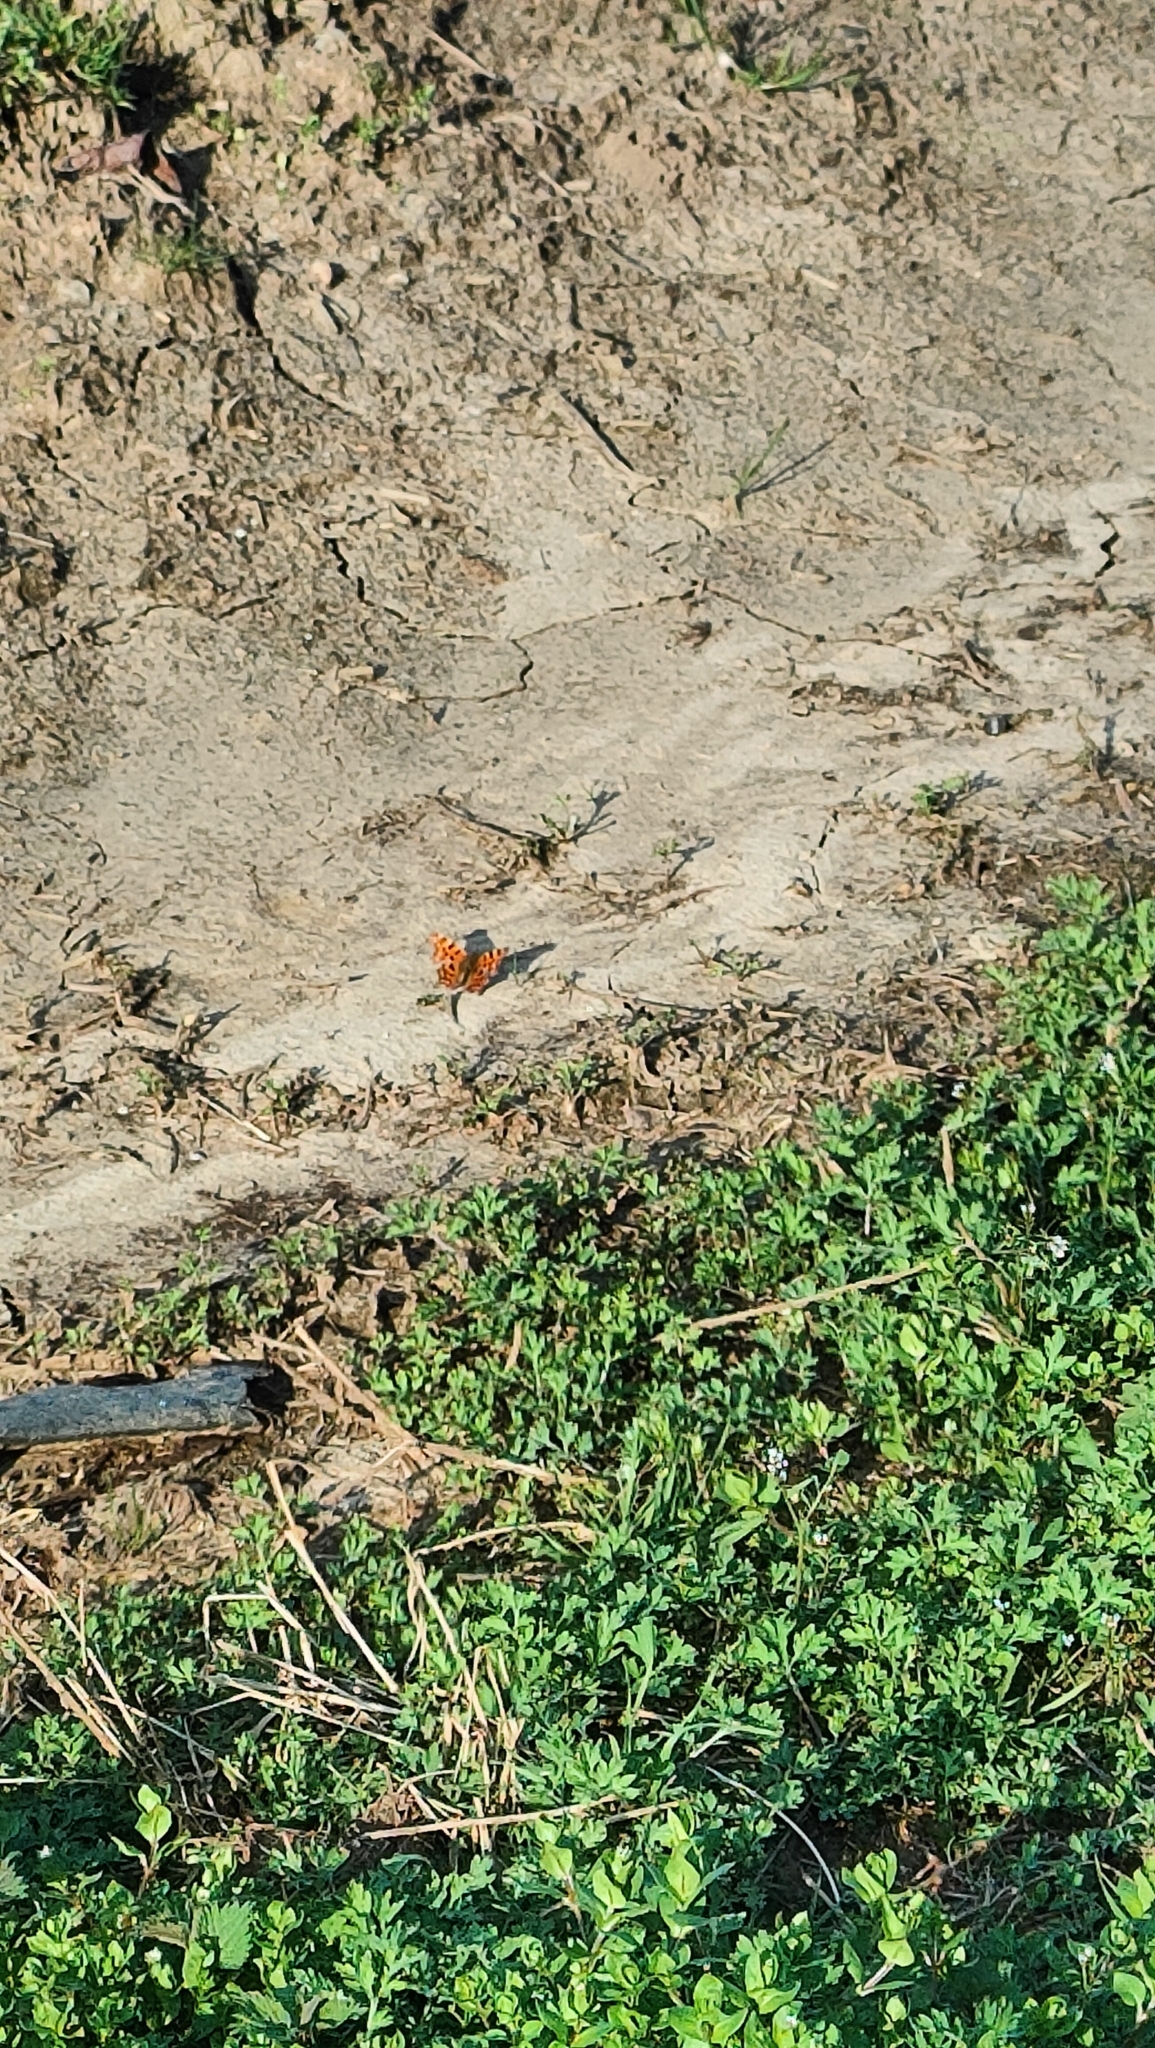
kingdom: Animalia
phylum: Arthropoda
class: Insecta
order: Lepidoptera
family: Nymphalidae
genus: Polygonia
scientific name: Polygonia c-album
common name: Comma
